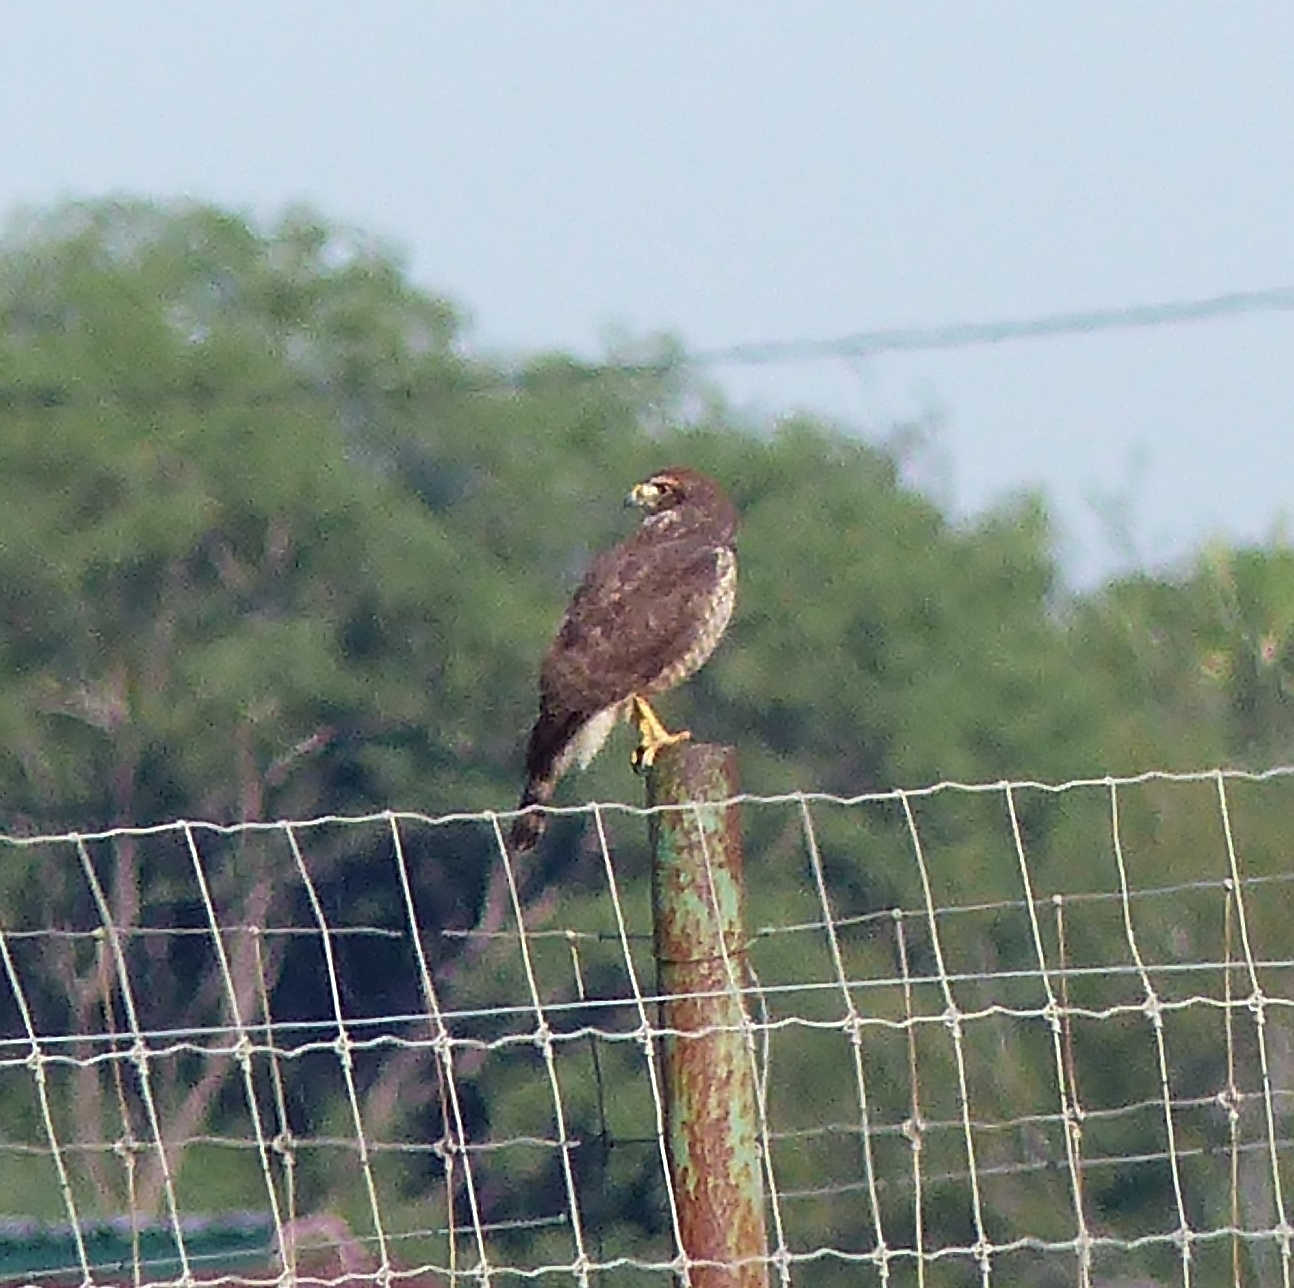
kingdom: Animalia
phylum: Chordata
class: Aves
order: Accipitriformes
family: Accipitridae
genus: Rupornis
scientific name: Rupornis magnirostris
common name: Roadside hawk
